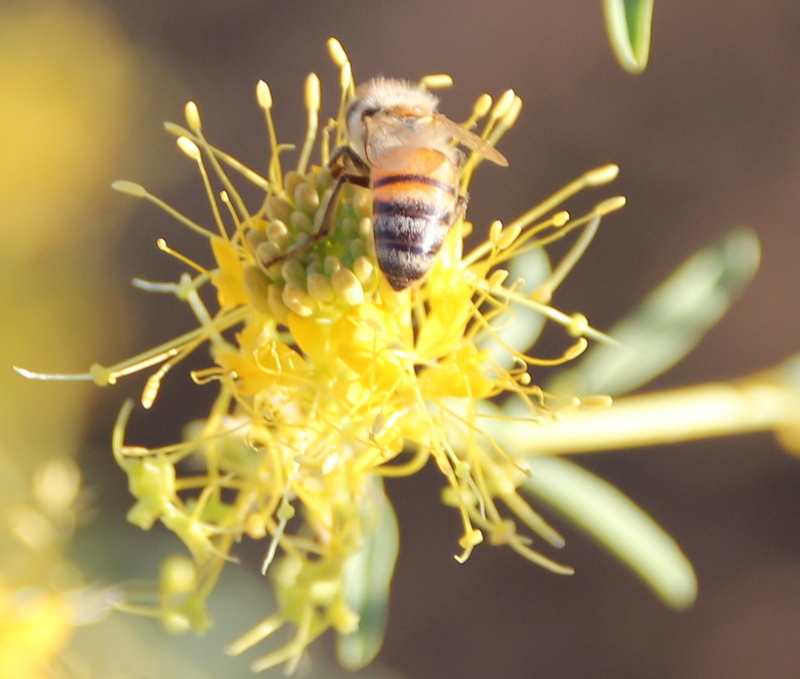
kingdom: Animalia
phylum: Arthropoda
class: Insecta
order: Hymenoptera
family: Apidae
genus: Apis
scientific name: Apis mellifera
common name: Honey bee
